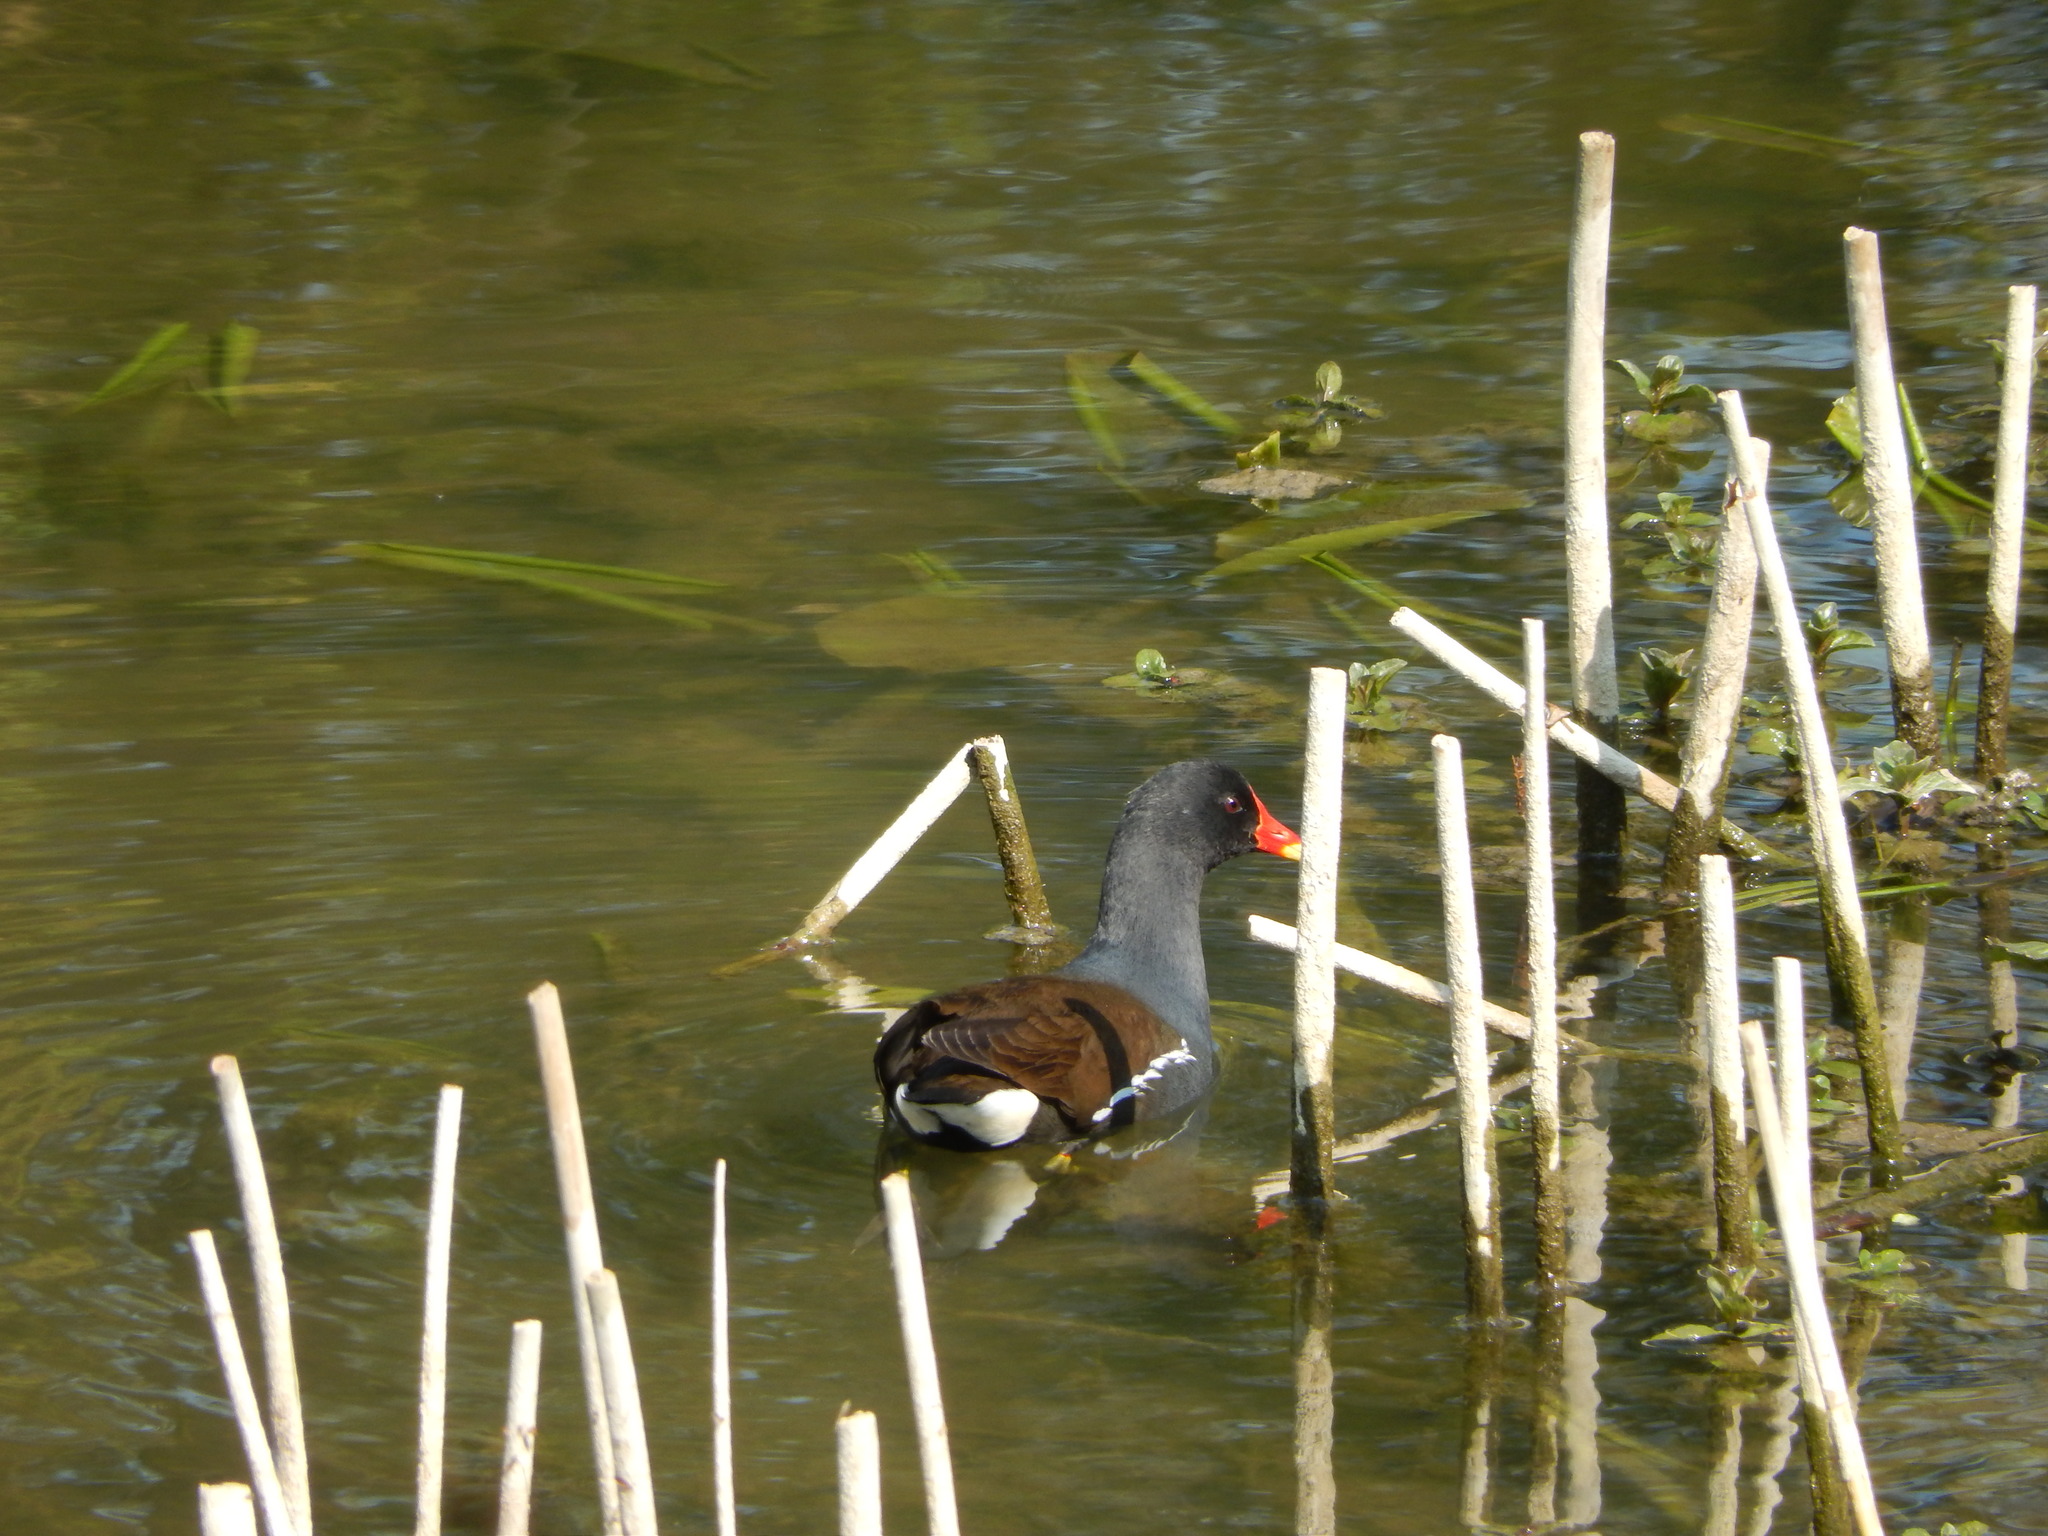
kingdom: Animalia
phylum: Chordata
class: Aves
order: Gruiformes
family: Rallidae
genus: Gallinula
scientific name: Gallinula chloropus
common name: Common moorhen
